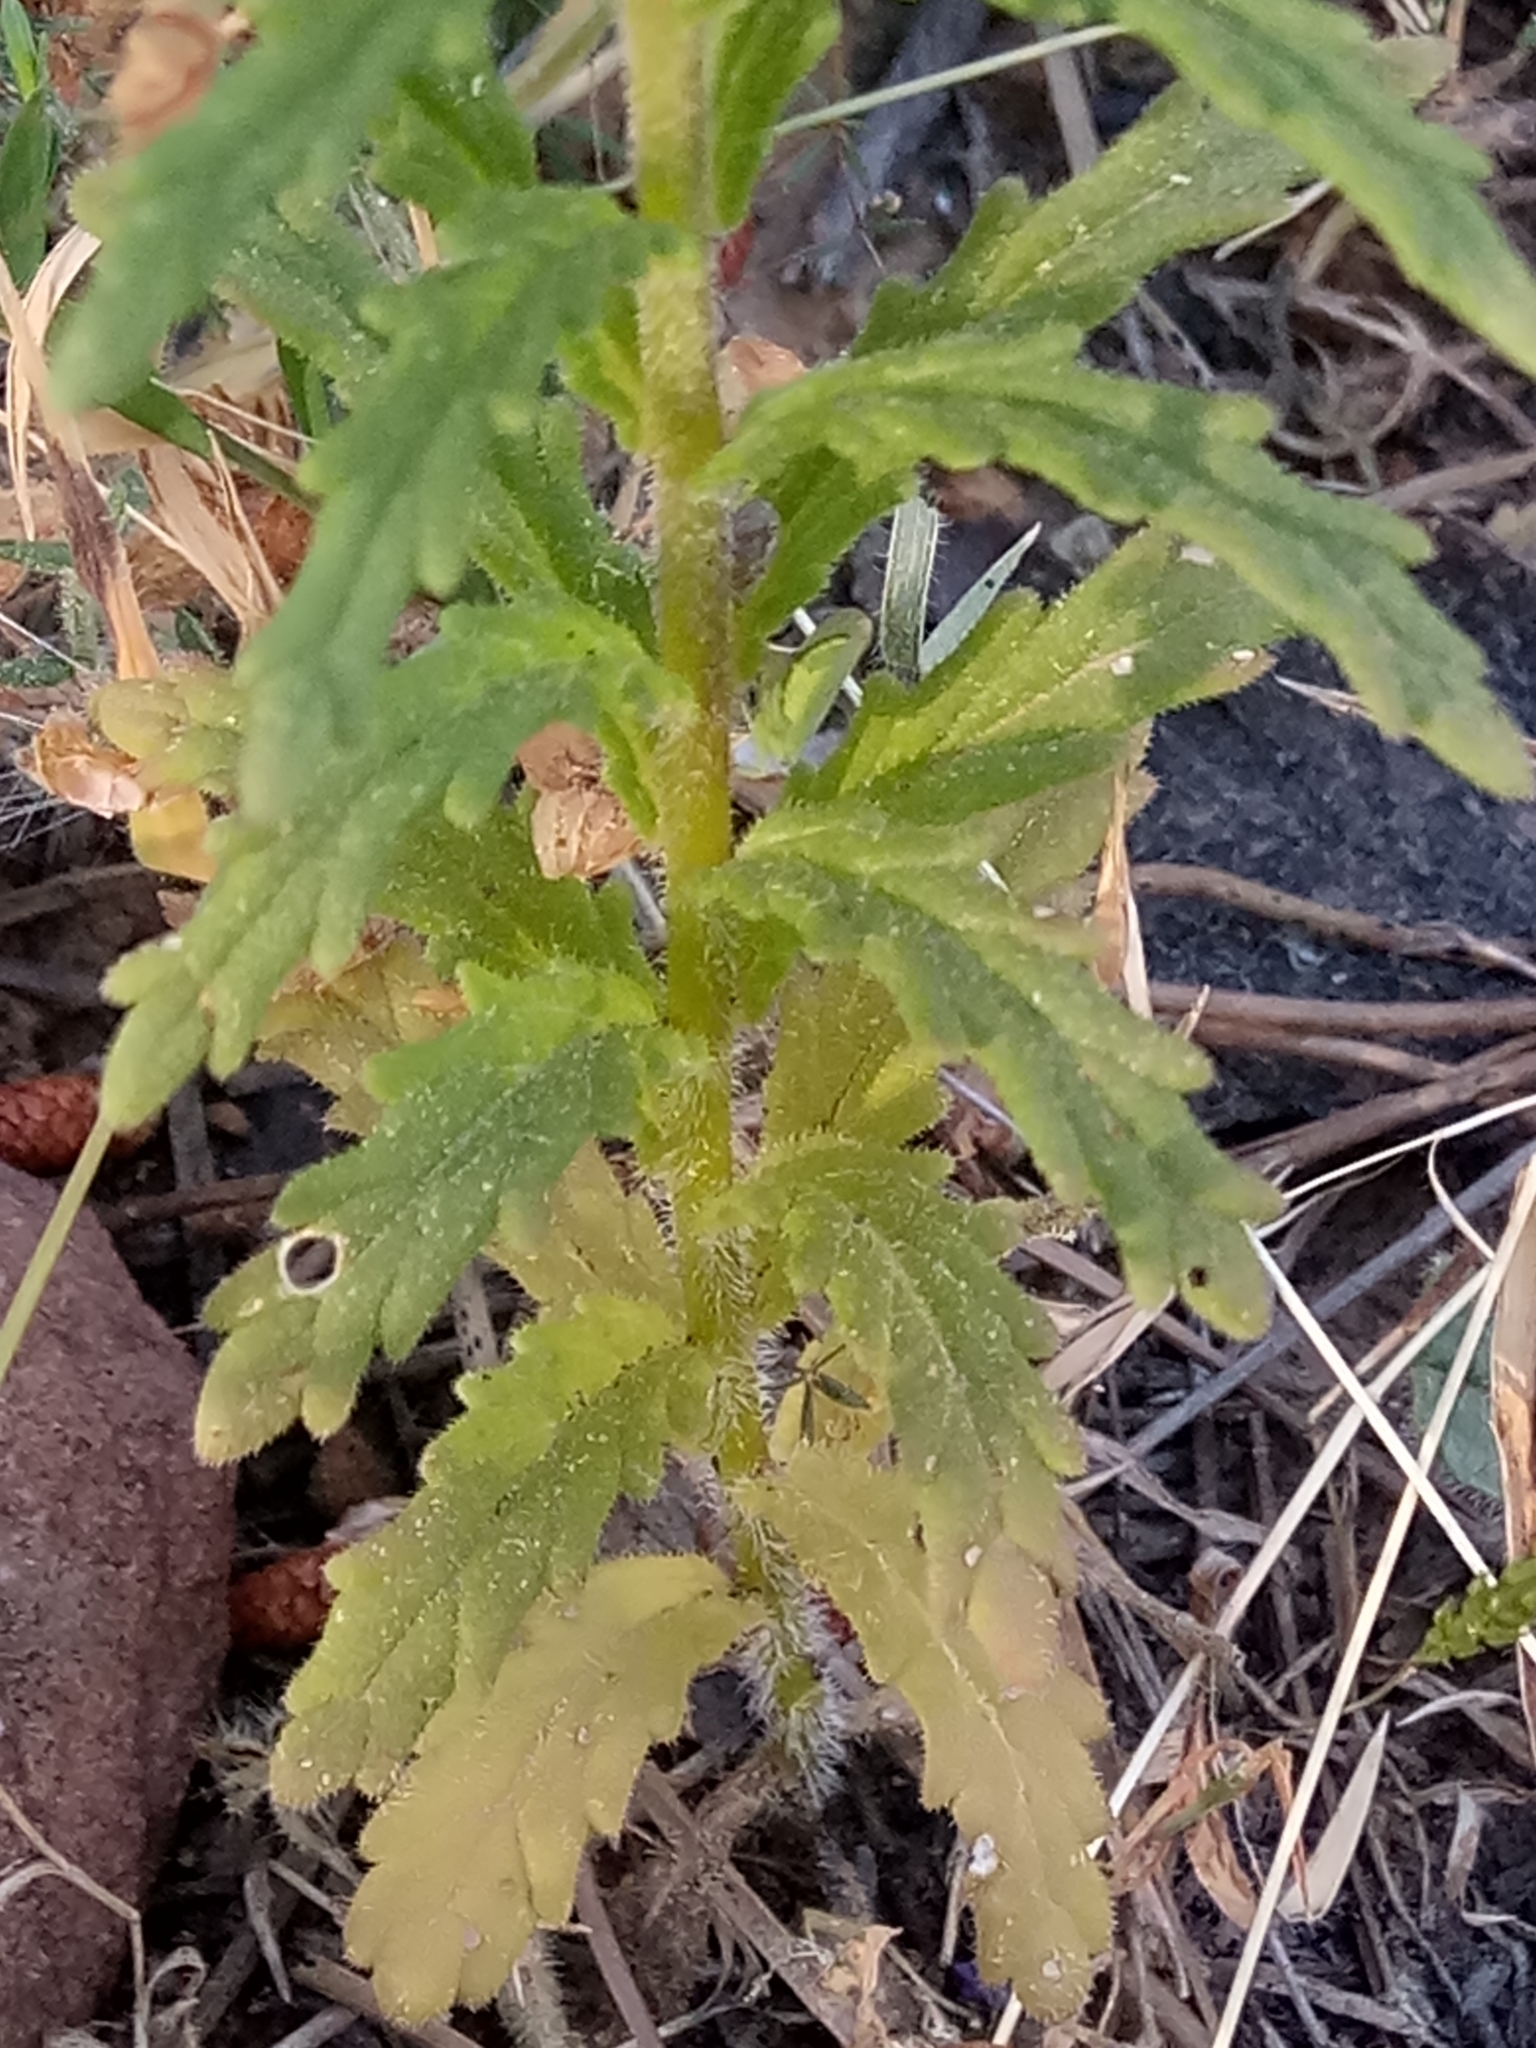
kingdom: Plantae
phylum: Tracheophyta
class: Magnoliopsida
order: Lamiales
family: Orobanchaceae
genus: Bellardia
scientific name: Bellardia trixago
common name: Mediterranean lineseed
